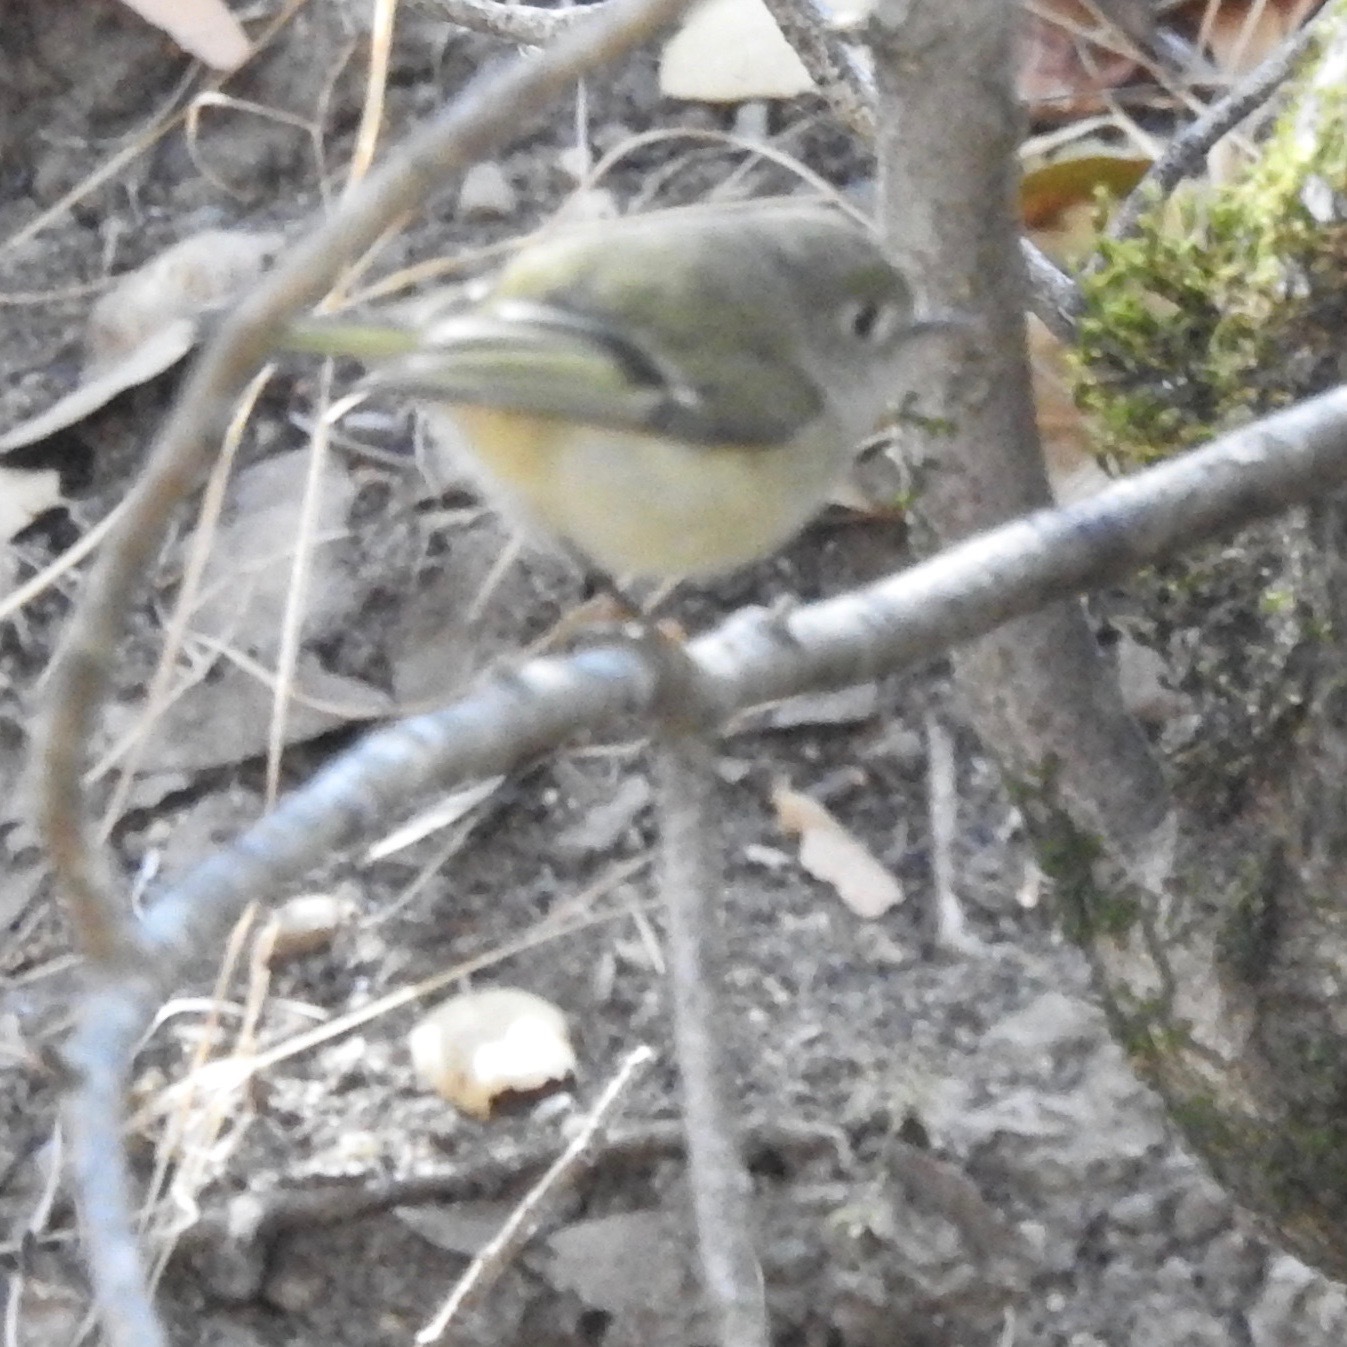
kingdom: Animalia
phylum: Chordata
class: Aves
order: Passeriformes
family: Regulidae
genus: Regulus
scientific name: Regulus calendula
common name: Ruby-crowned kinglet
